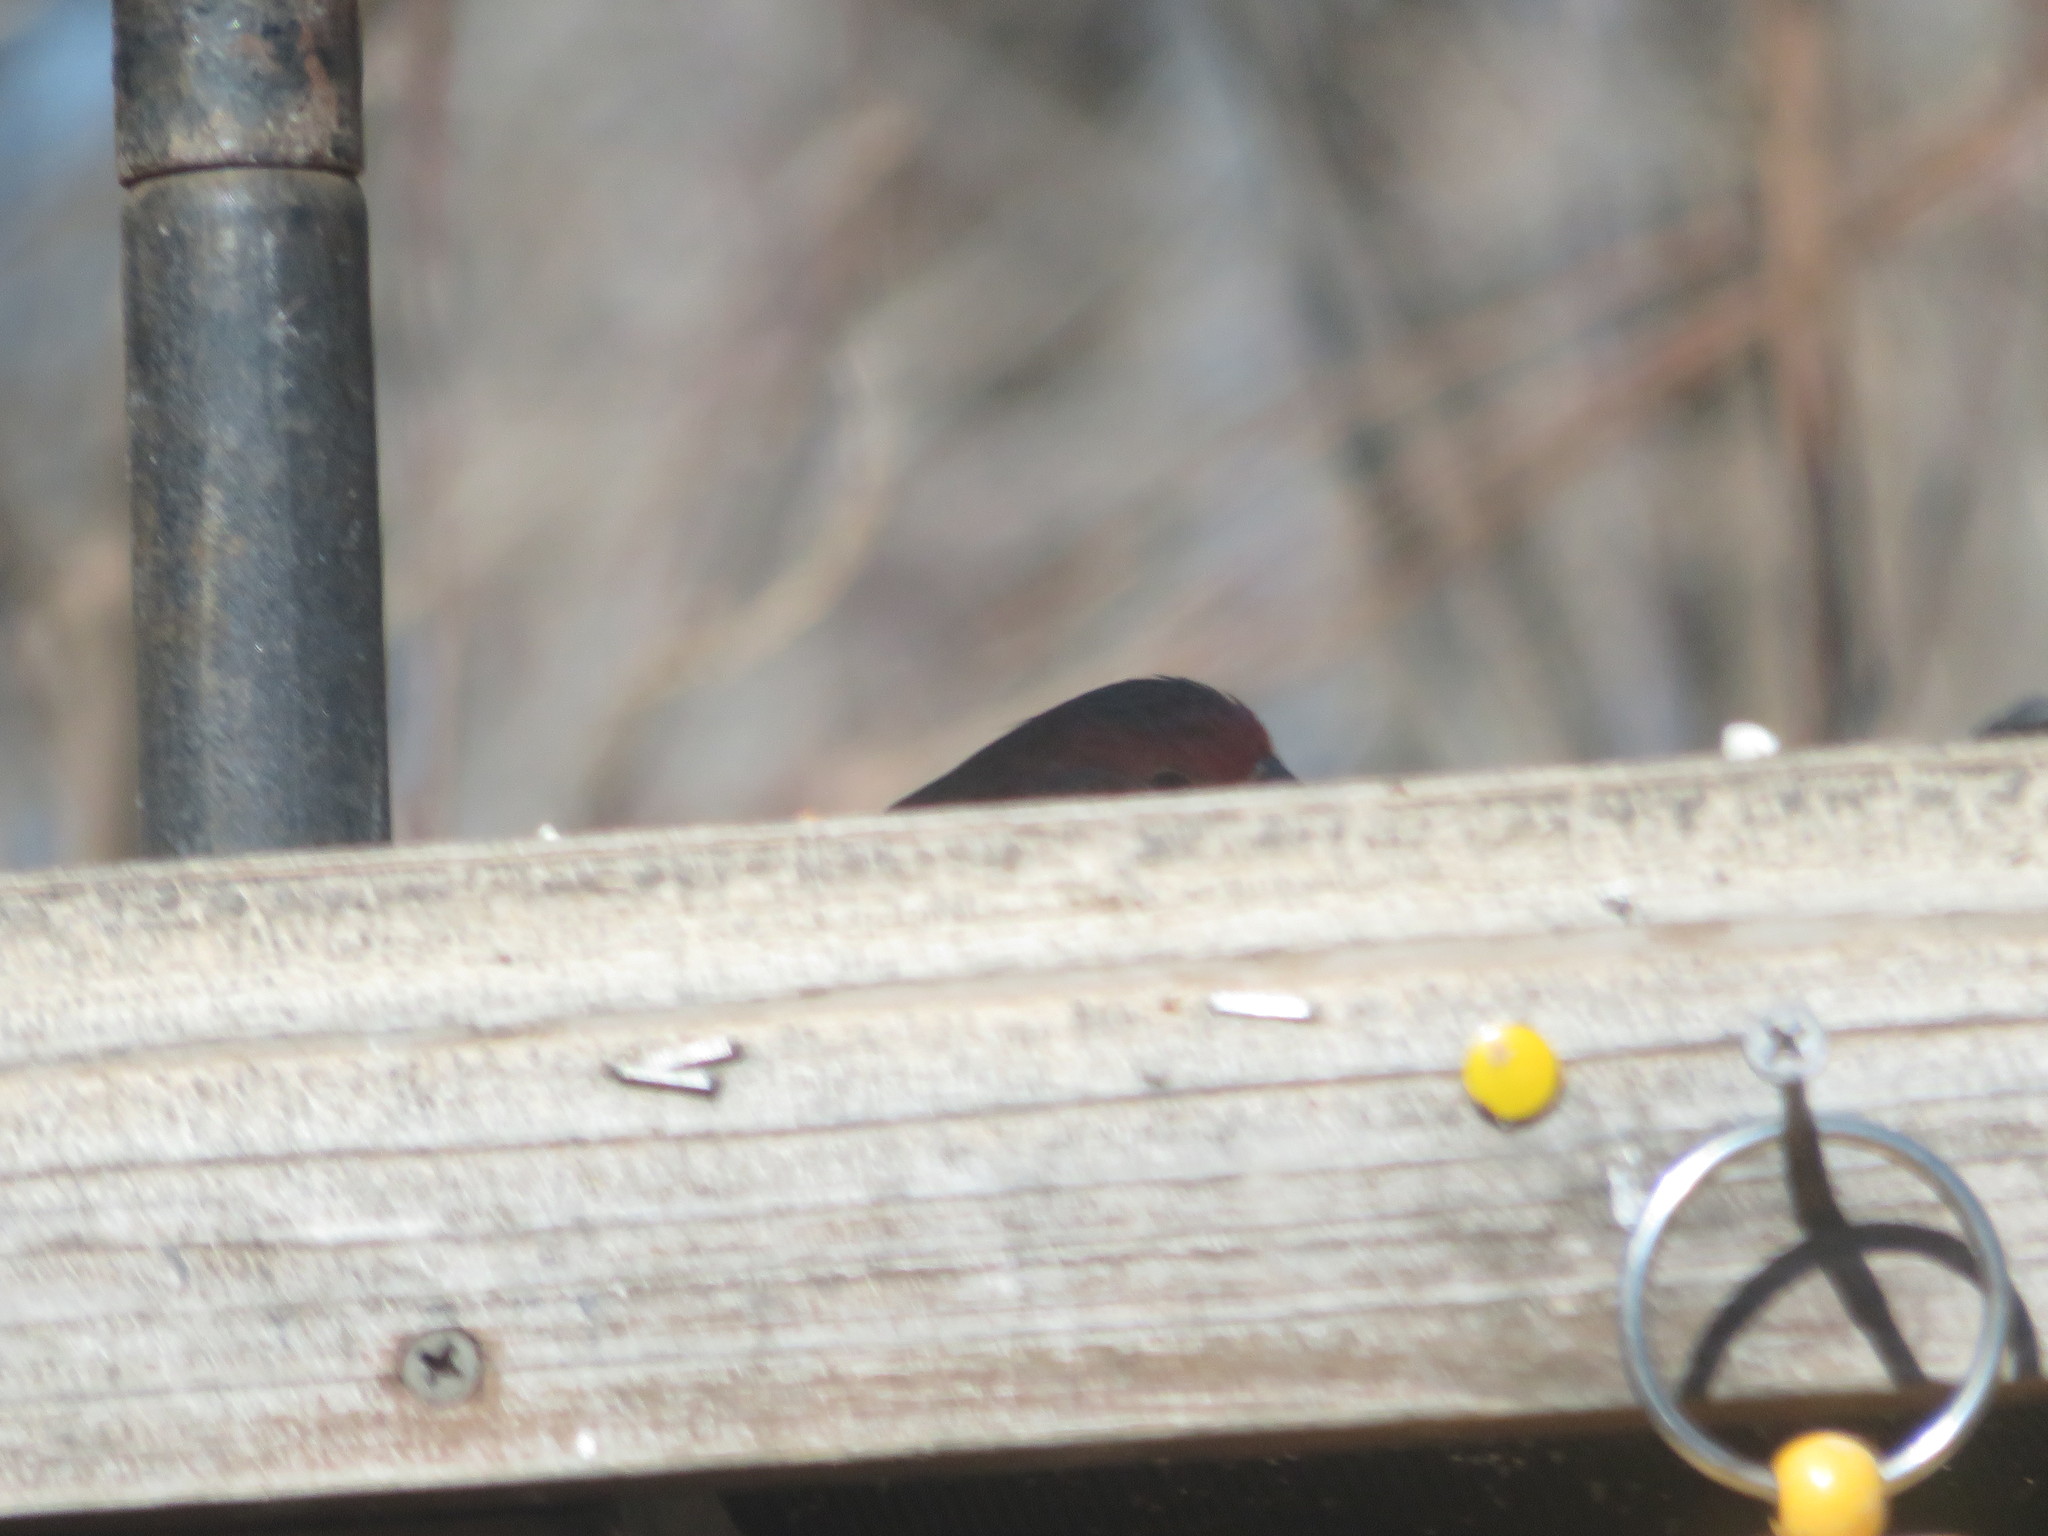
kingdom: Animalia
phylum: Chordata
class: Aves
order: Passeriformes
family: Fringillidae
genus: Haemorhous
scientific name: Haemorhous mexicanus
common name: House finch
